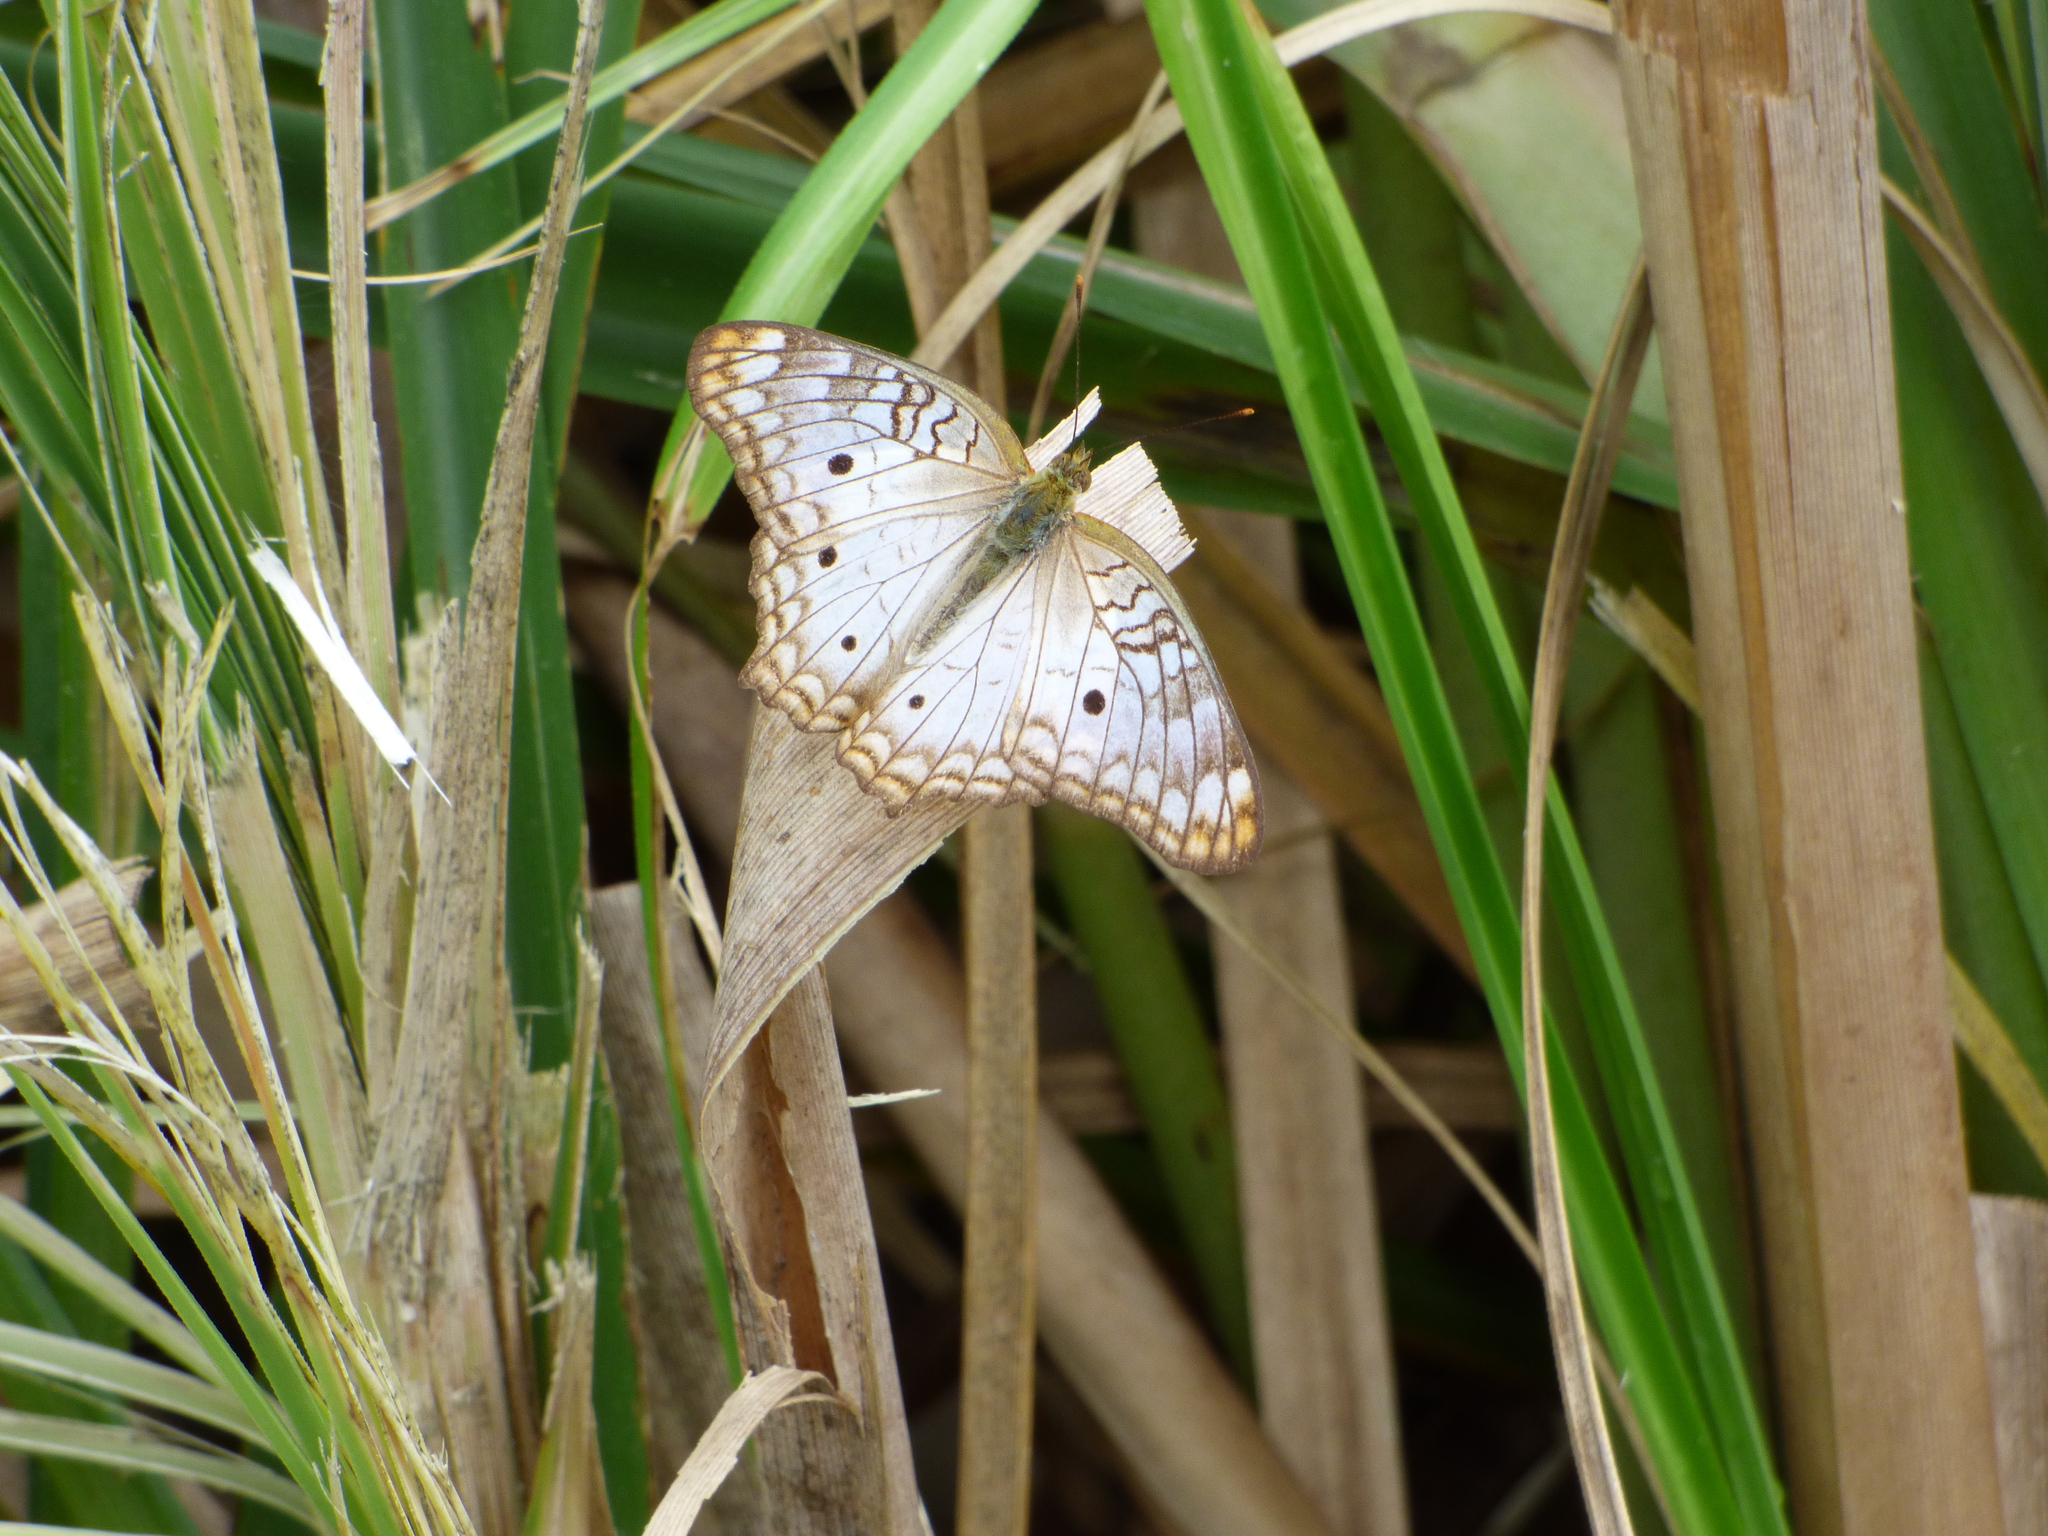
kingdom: Animalia
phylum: Arthropoda
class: Insecta
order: Lepidoptera
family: Nymphalidae
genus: Anartia
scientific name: Anartia jatrophae
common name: White peacock
